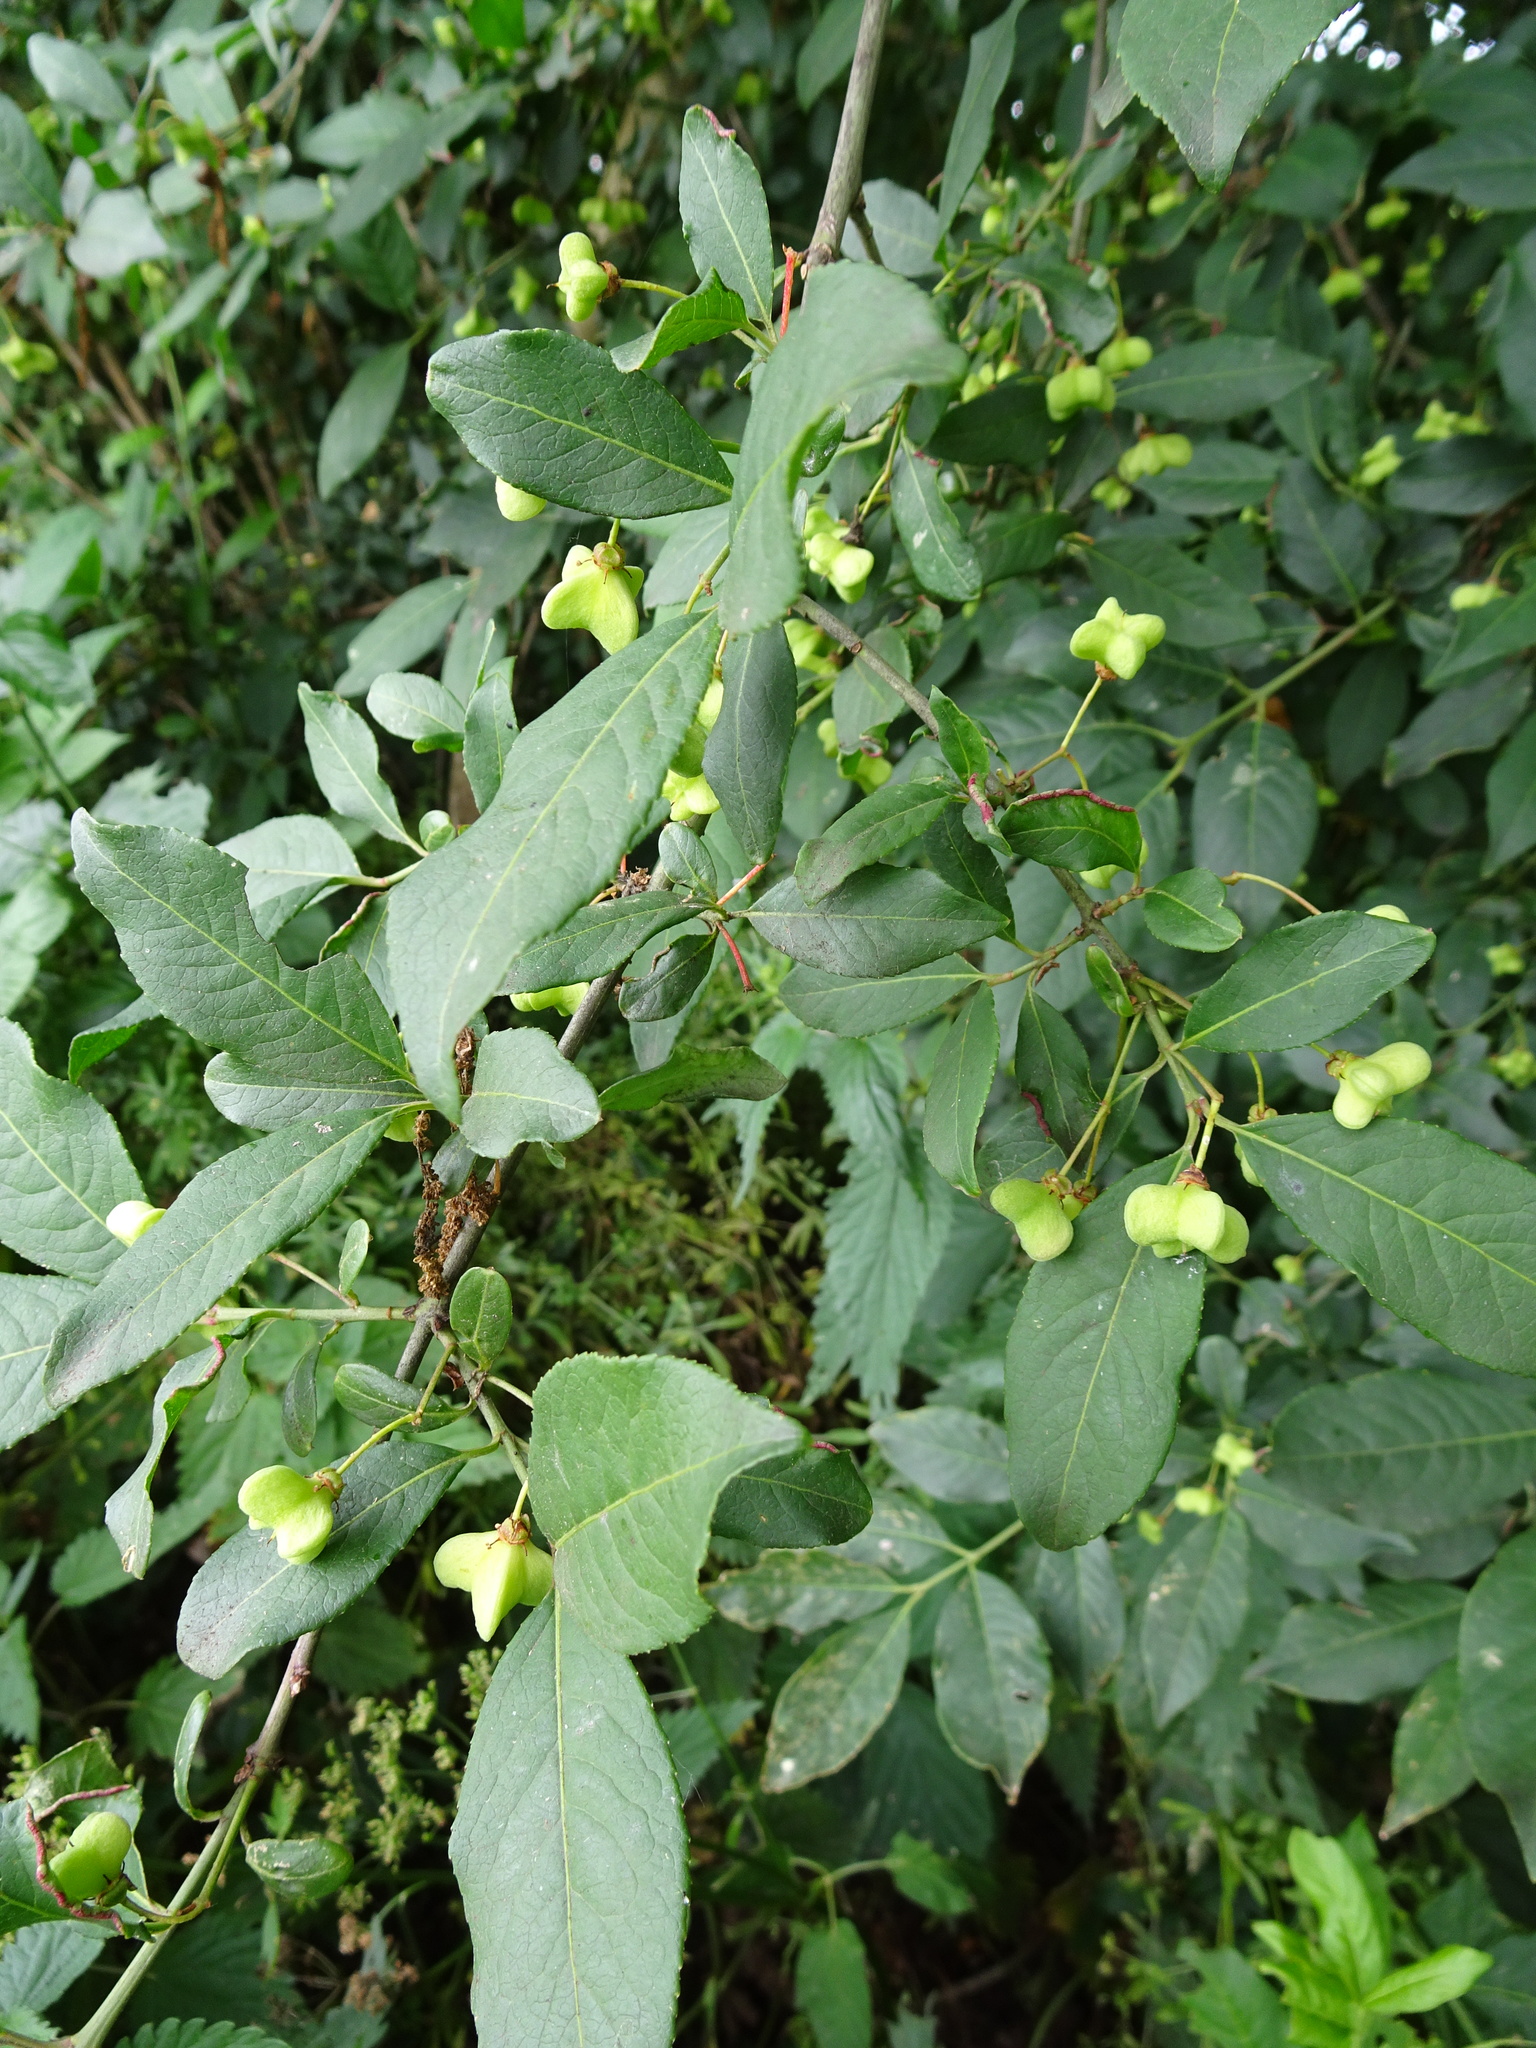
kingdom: Plantae
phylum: Tracheophyta
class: Magnoliopsida
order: Celastrales
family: Celastraceae
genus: Euonymus
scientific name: Euonymus europaeus
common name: Spindle
